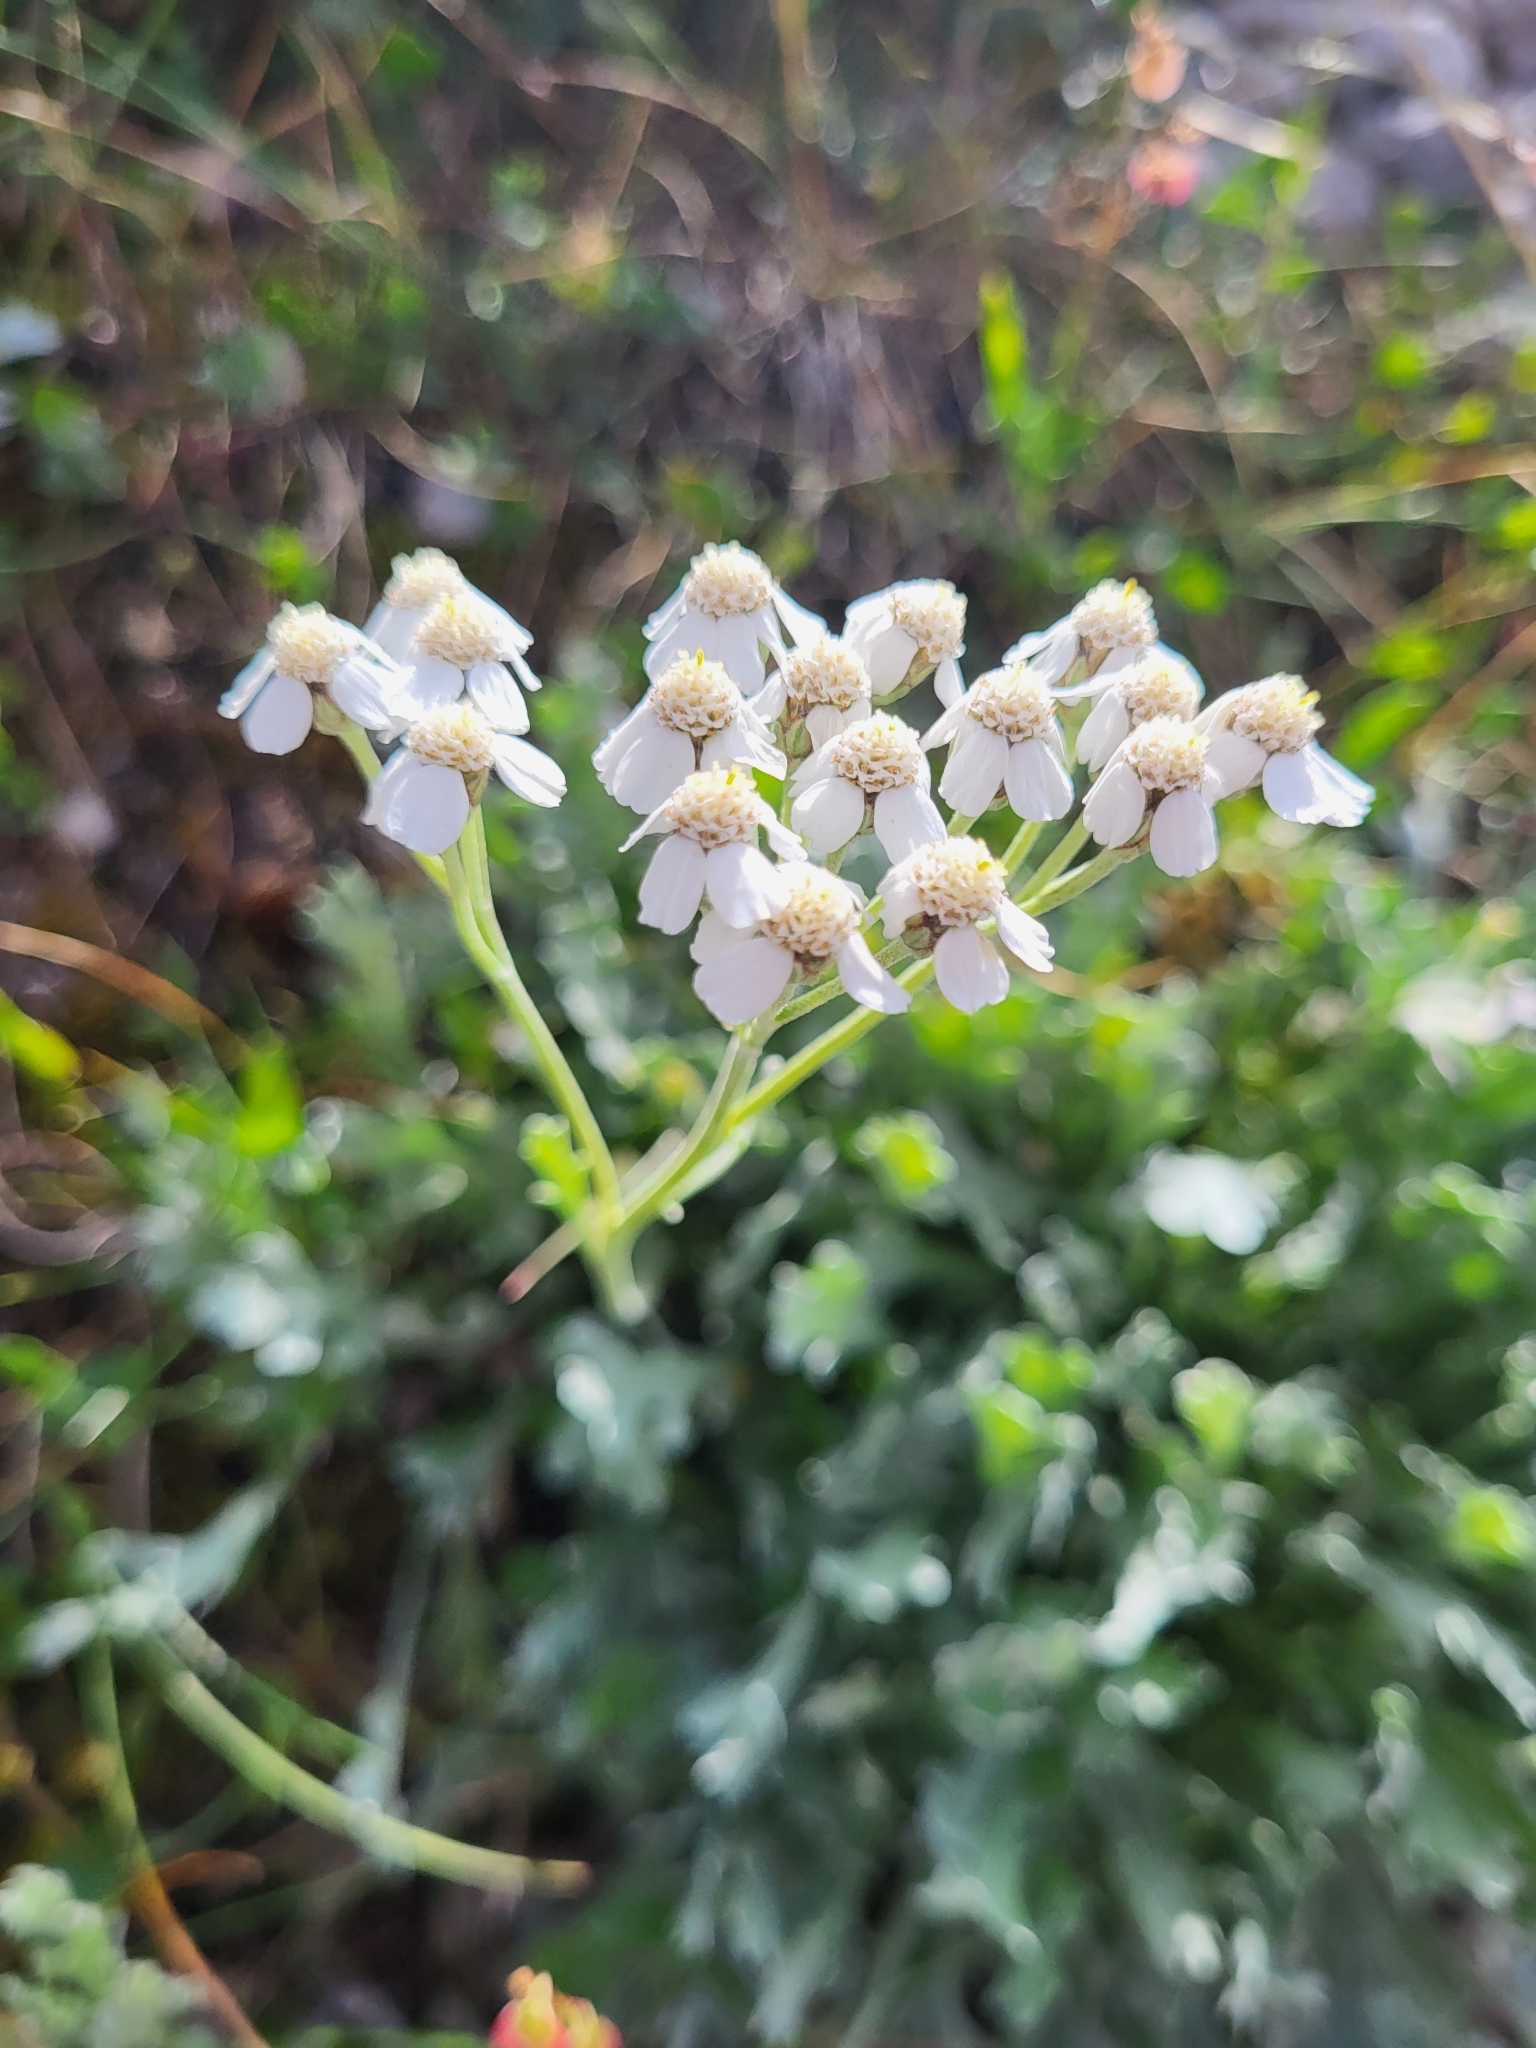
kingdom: Plantae
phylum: Tracheophyta
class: Magnoliopsida
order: Asterales
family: Asteraceae
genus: Achillea
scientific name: Achillea clavennae
